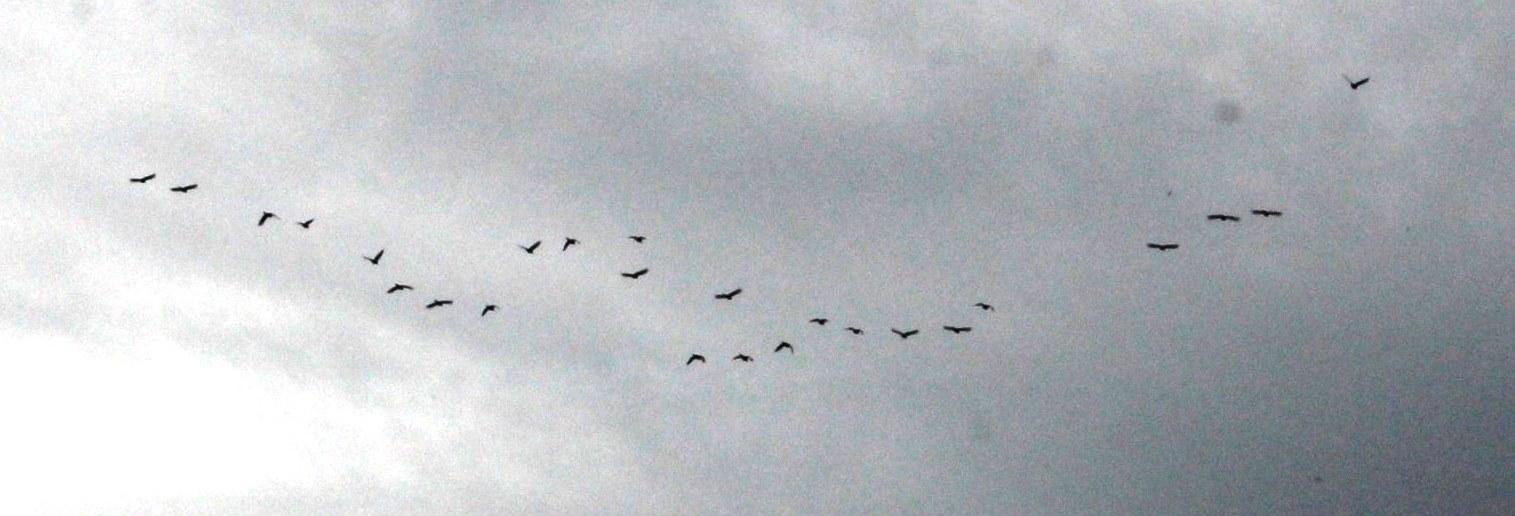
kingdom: Animalia
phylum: Chordata
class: Aves
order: Psittaciformes
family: Psittacidae
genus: Enicognathus
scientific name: Enicognathus leptorhynchus
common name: Slender-billed parakeet
